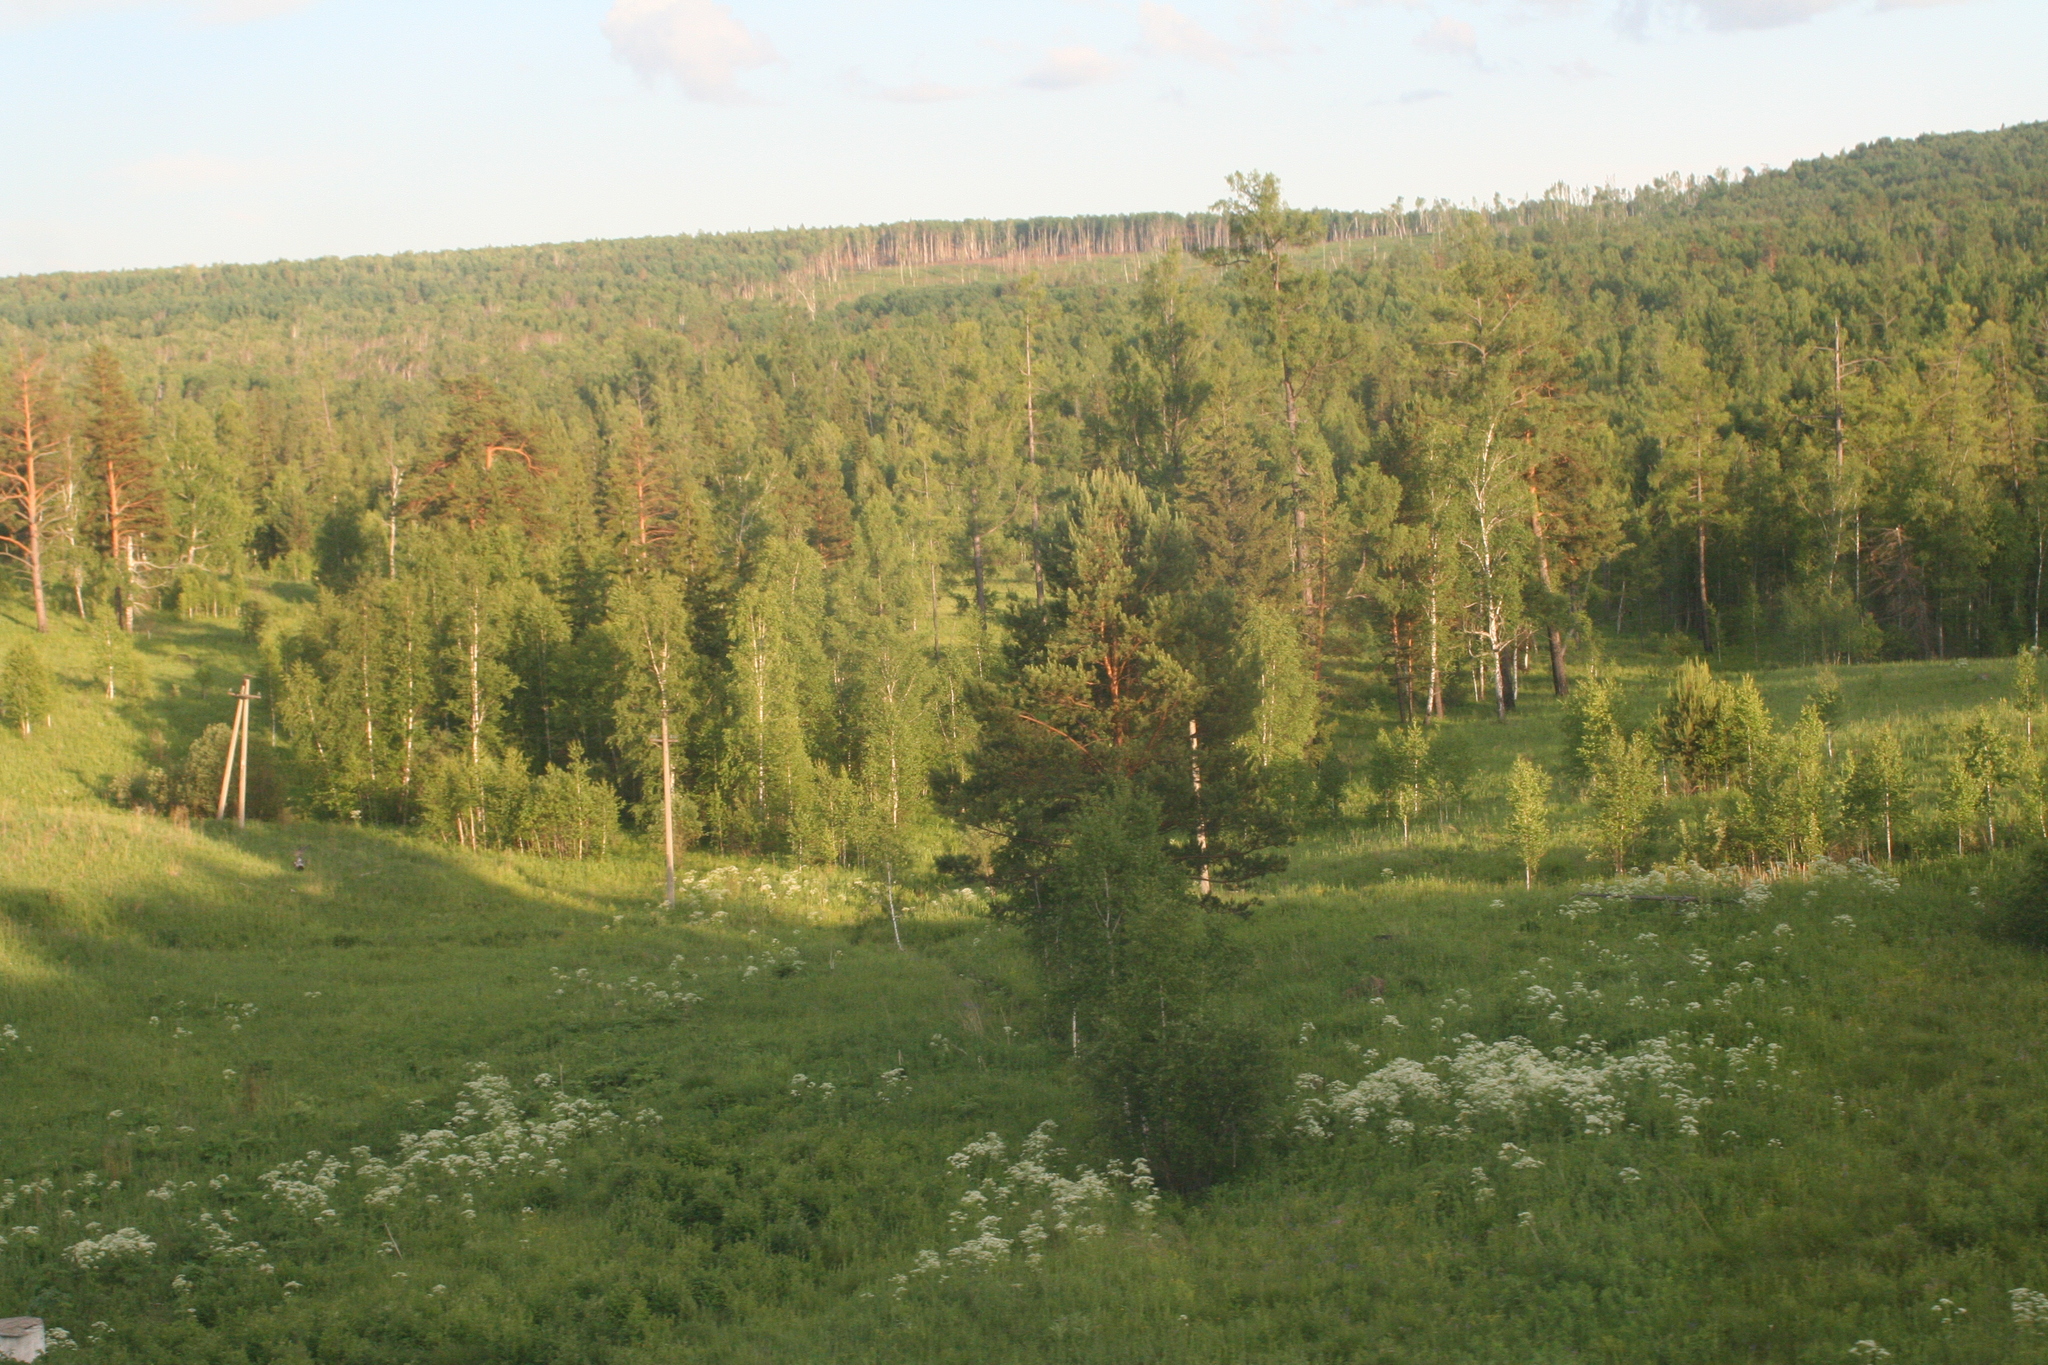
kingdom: Plantae
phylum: Tracheophyta
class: Pinopsida
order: Pinales
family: Pinaceae
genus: Pinus
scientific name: Pinus sylvestris
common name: Scots pine
